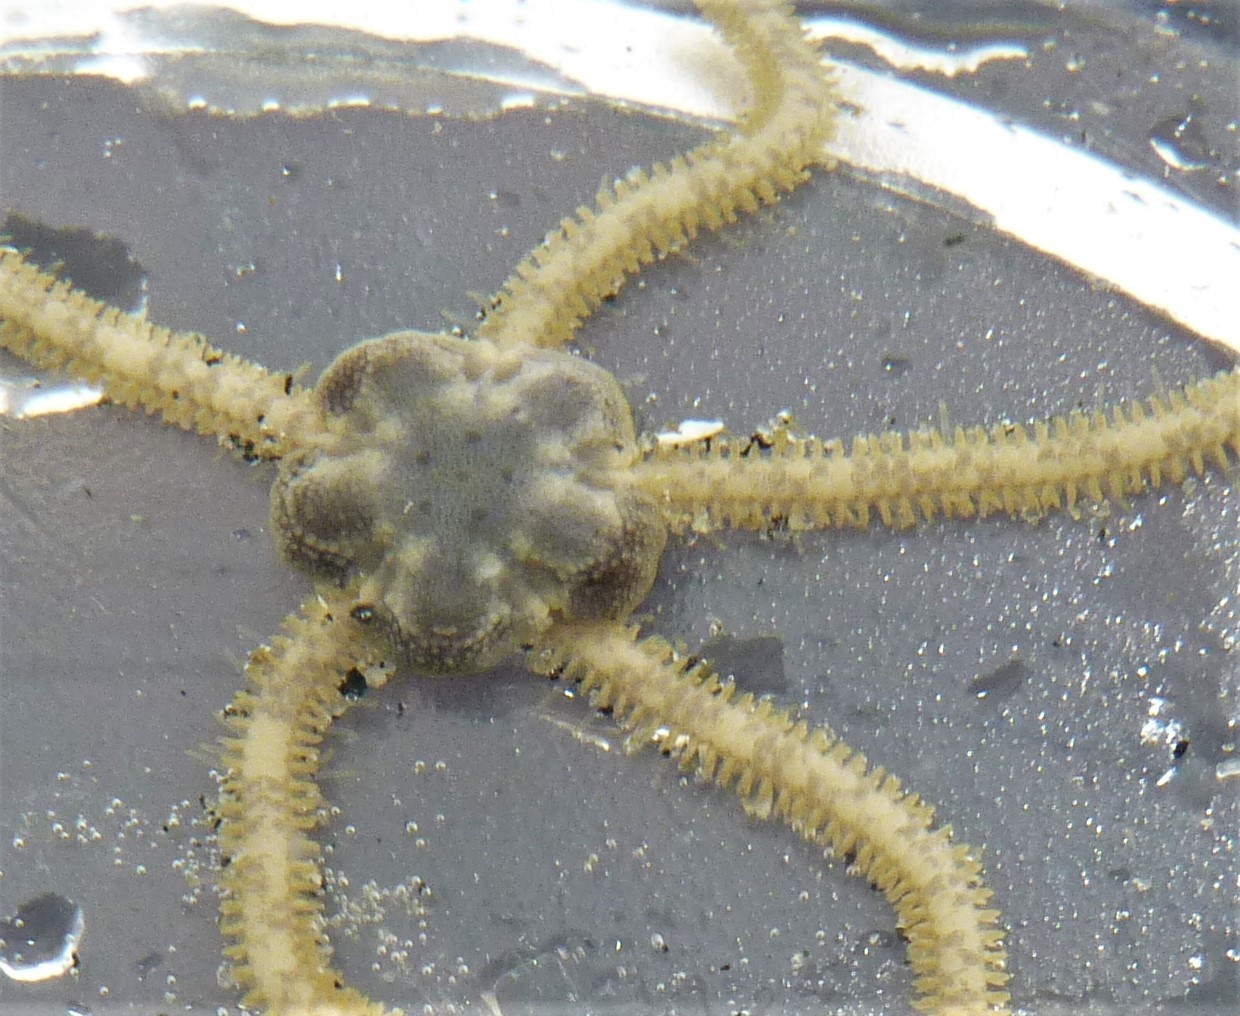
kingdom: Animalia
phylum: Echinodermata
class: Ophiuroidea
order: Amphilepidida
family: Amphiuridae
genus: Amphiodia
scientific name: Amphiodia occidentalis
